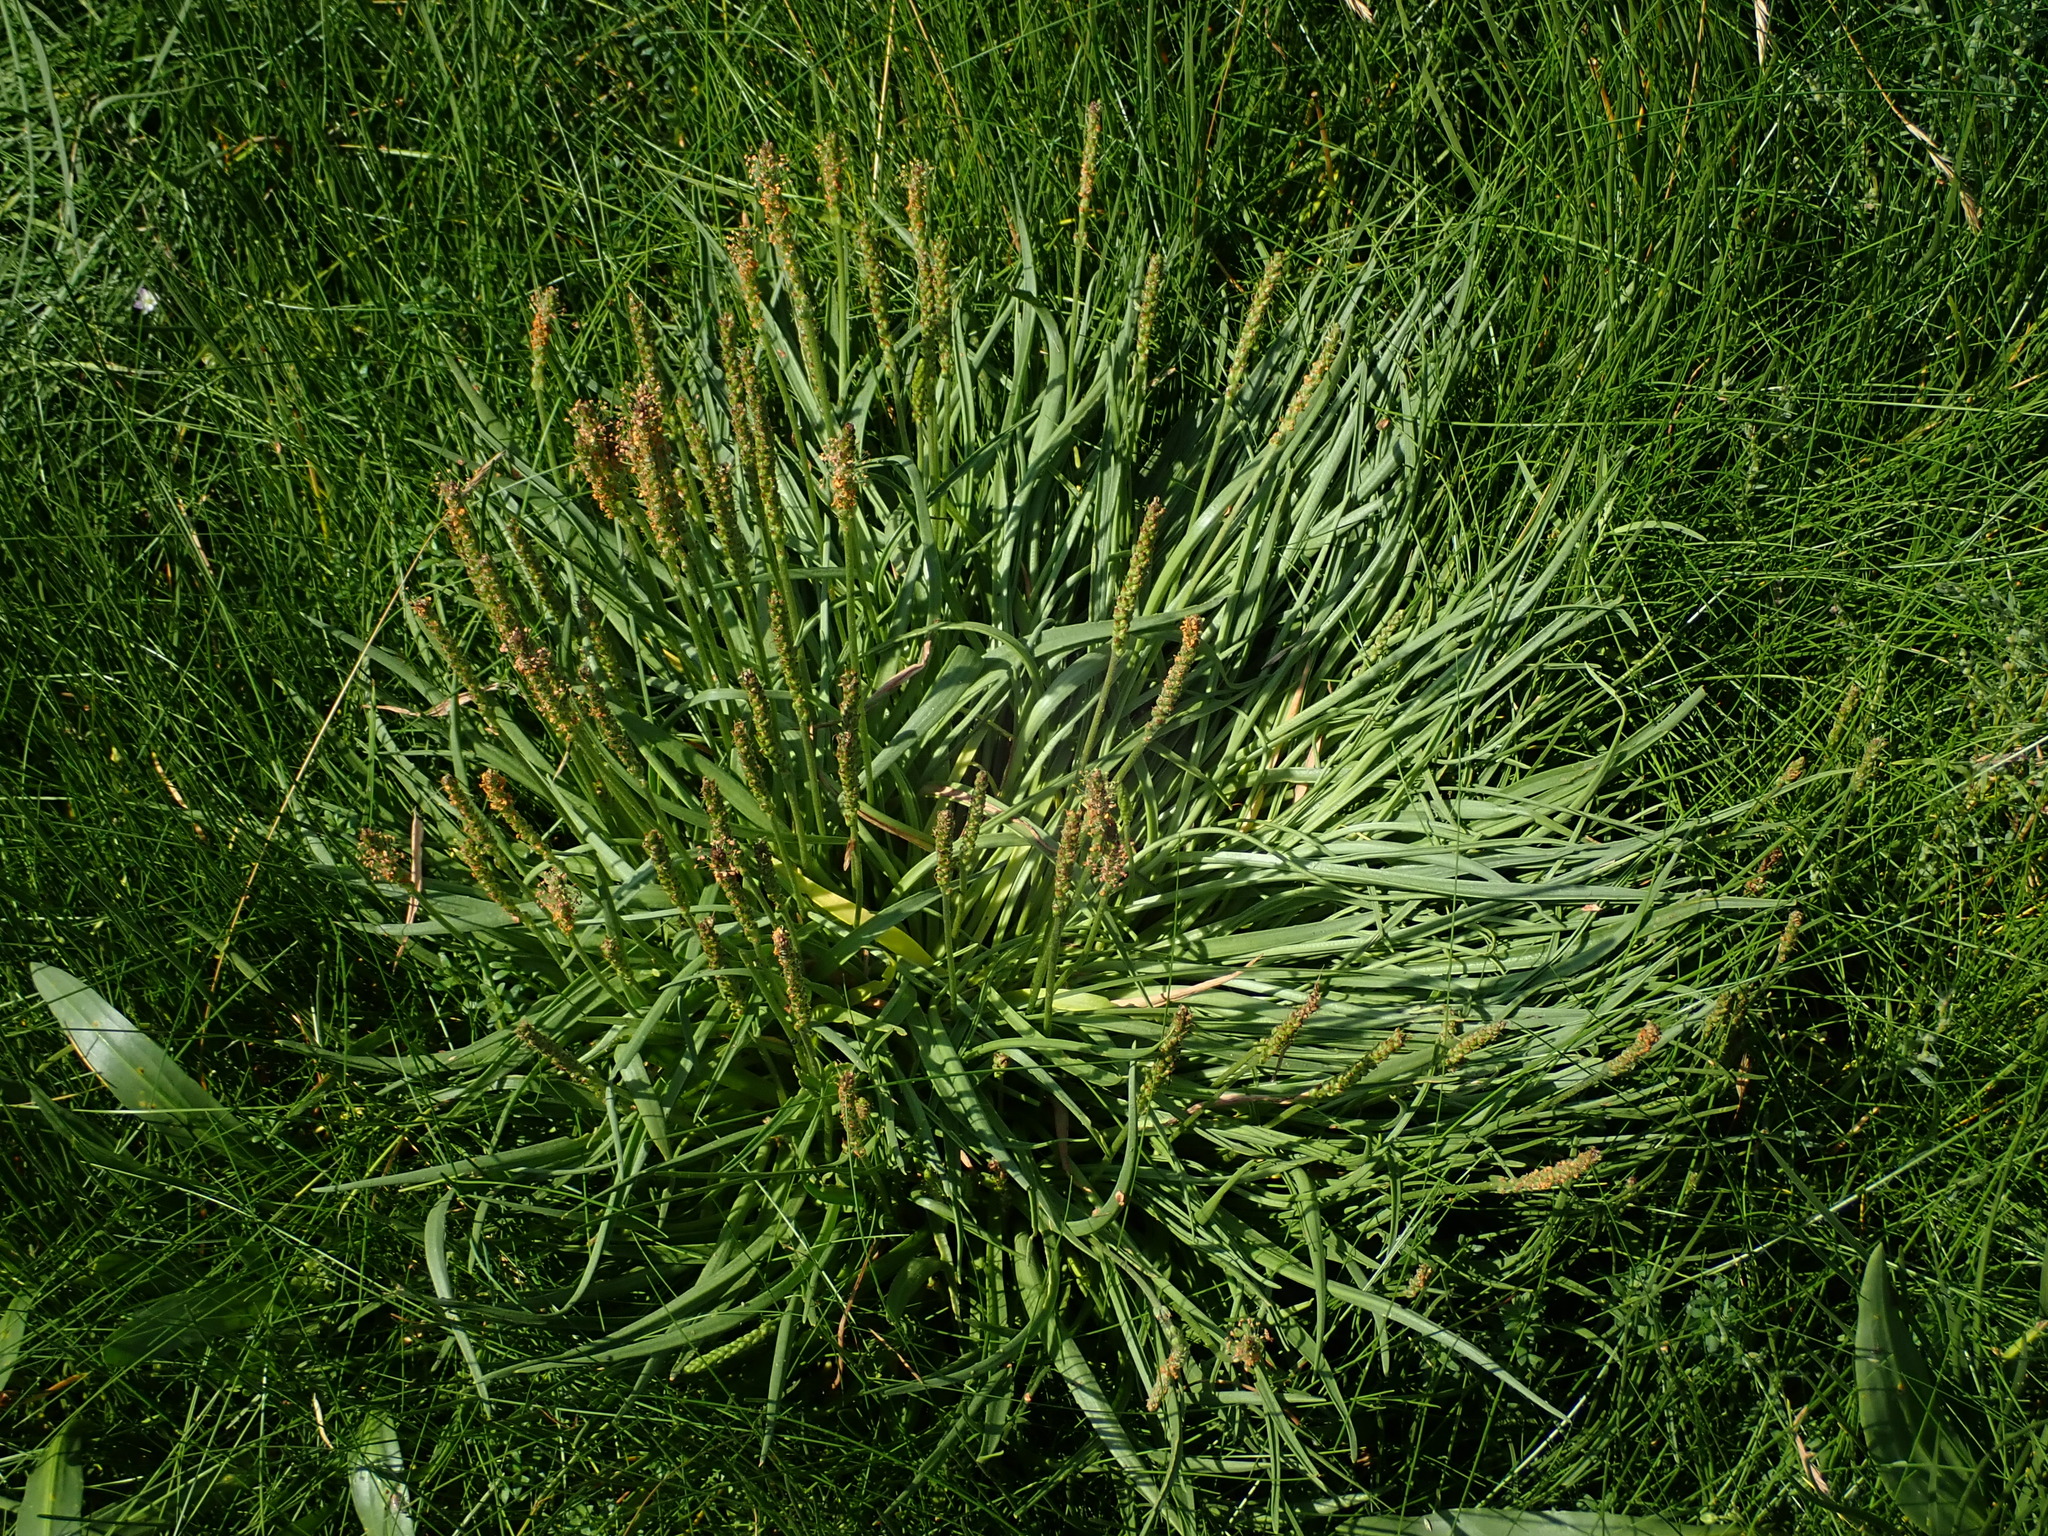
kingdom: Plantae
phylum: Tracheophyta
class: Magnoliopsida
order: Lamiales
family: Plantaginaceae
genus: Plantago
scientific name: Plantago maritima
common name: Sea plantain
